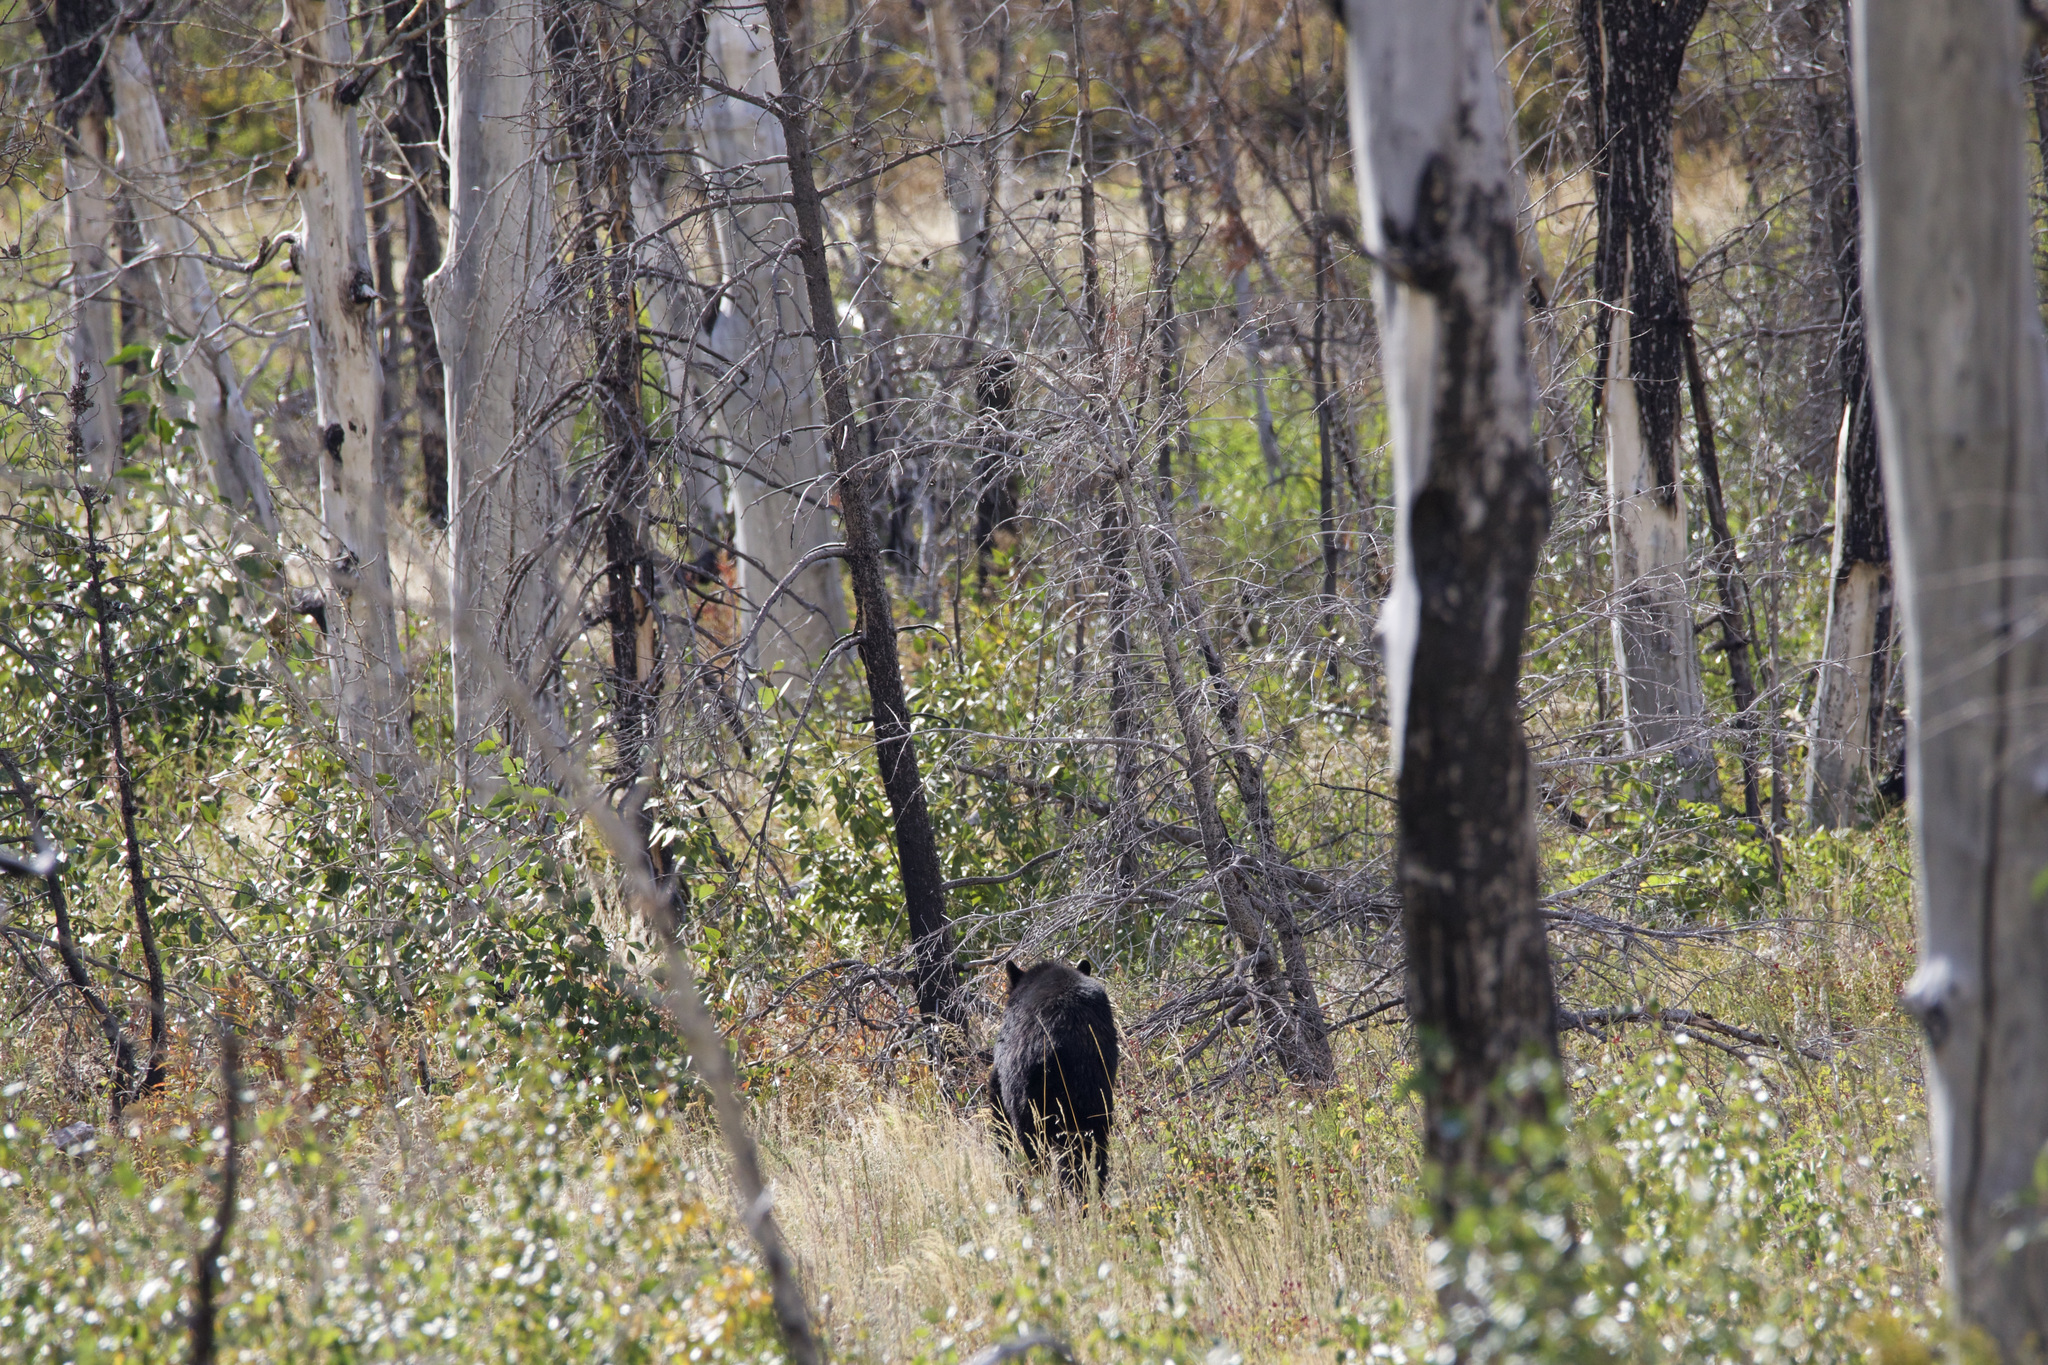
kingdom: Animalia
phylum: Chordata
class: Mammalia
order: Carnivora
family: Ursidae
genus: Ursus
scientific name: Ursus americanus
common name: American black bear
